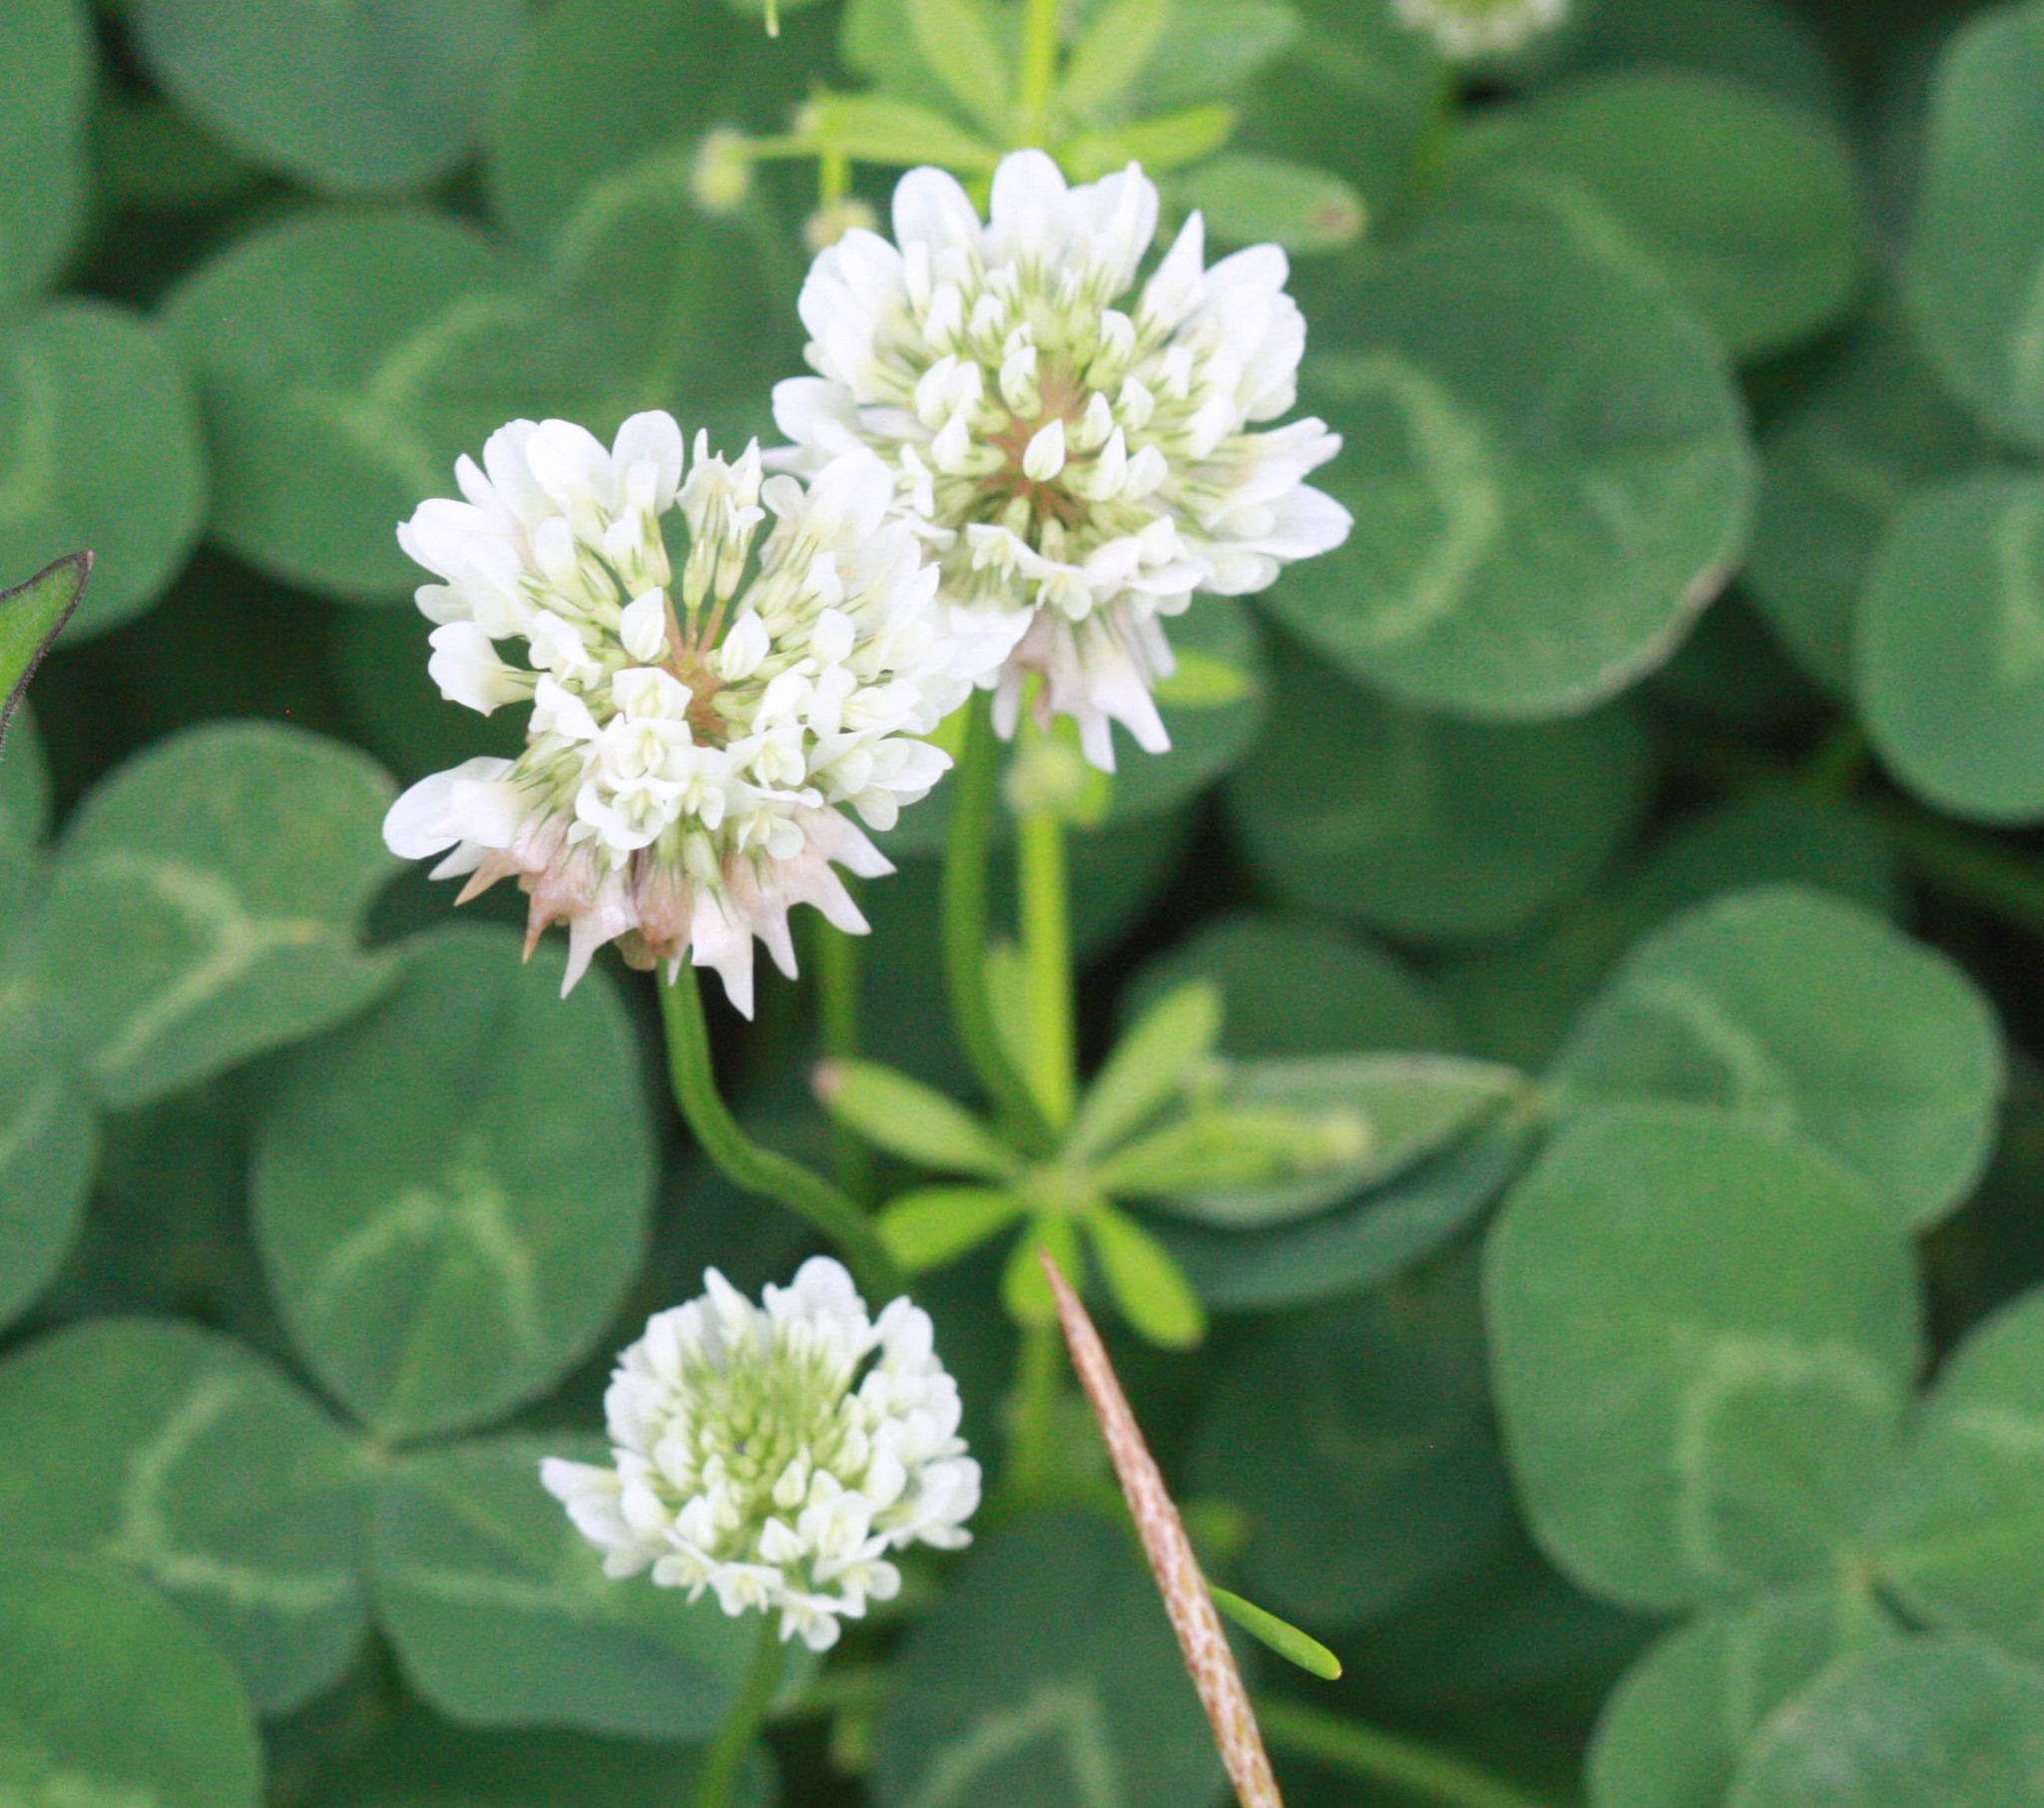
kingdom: Plantae
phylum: Tracheophyta
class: Magnoliopsida
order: Fabales
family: Fabaceae
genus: Trifolium
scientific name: Trifolium repens
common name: White clover
